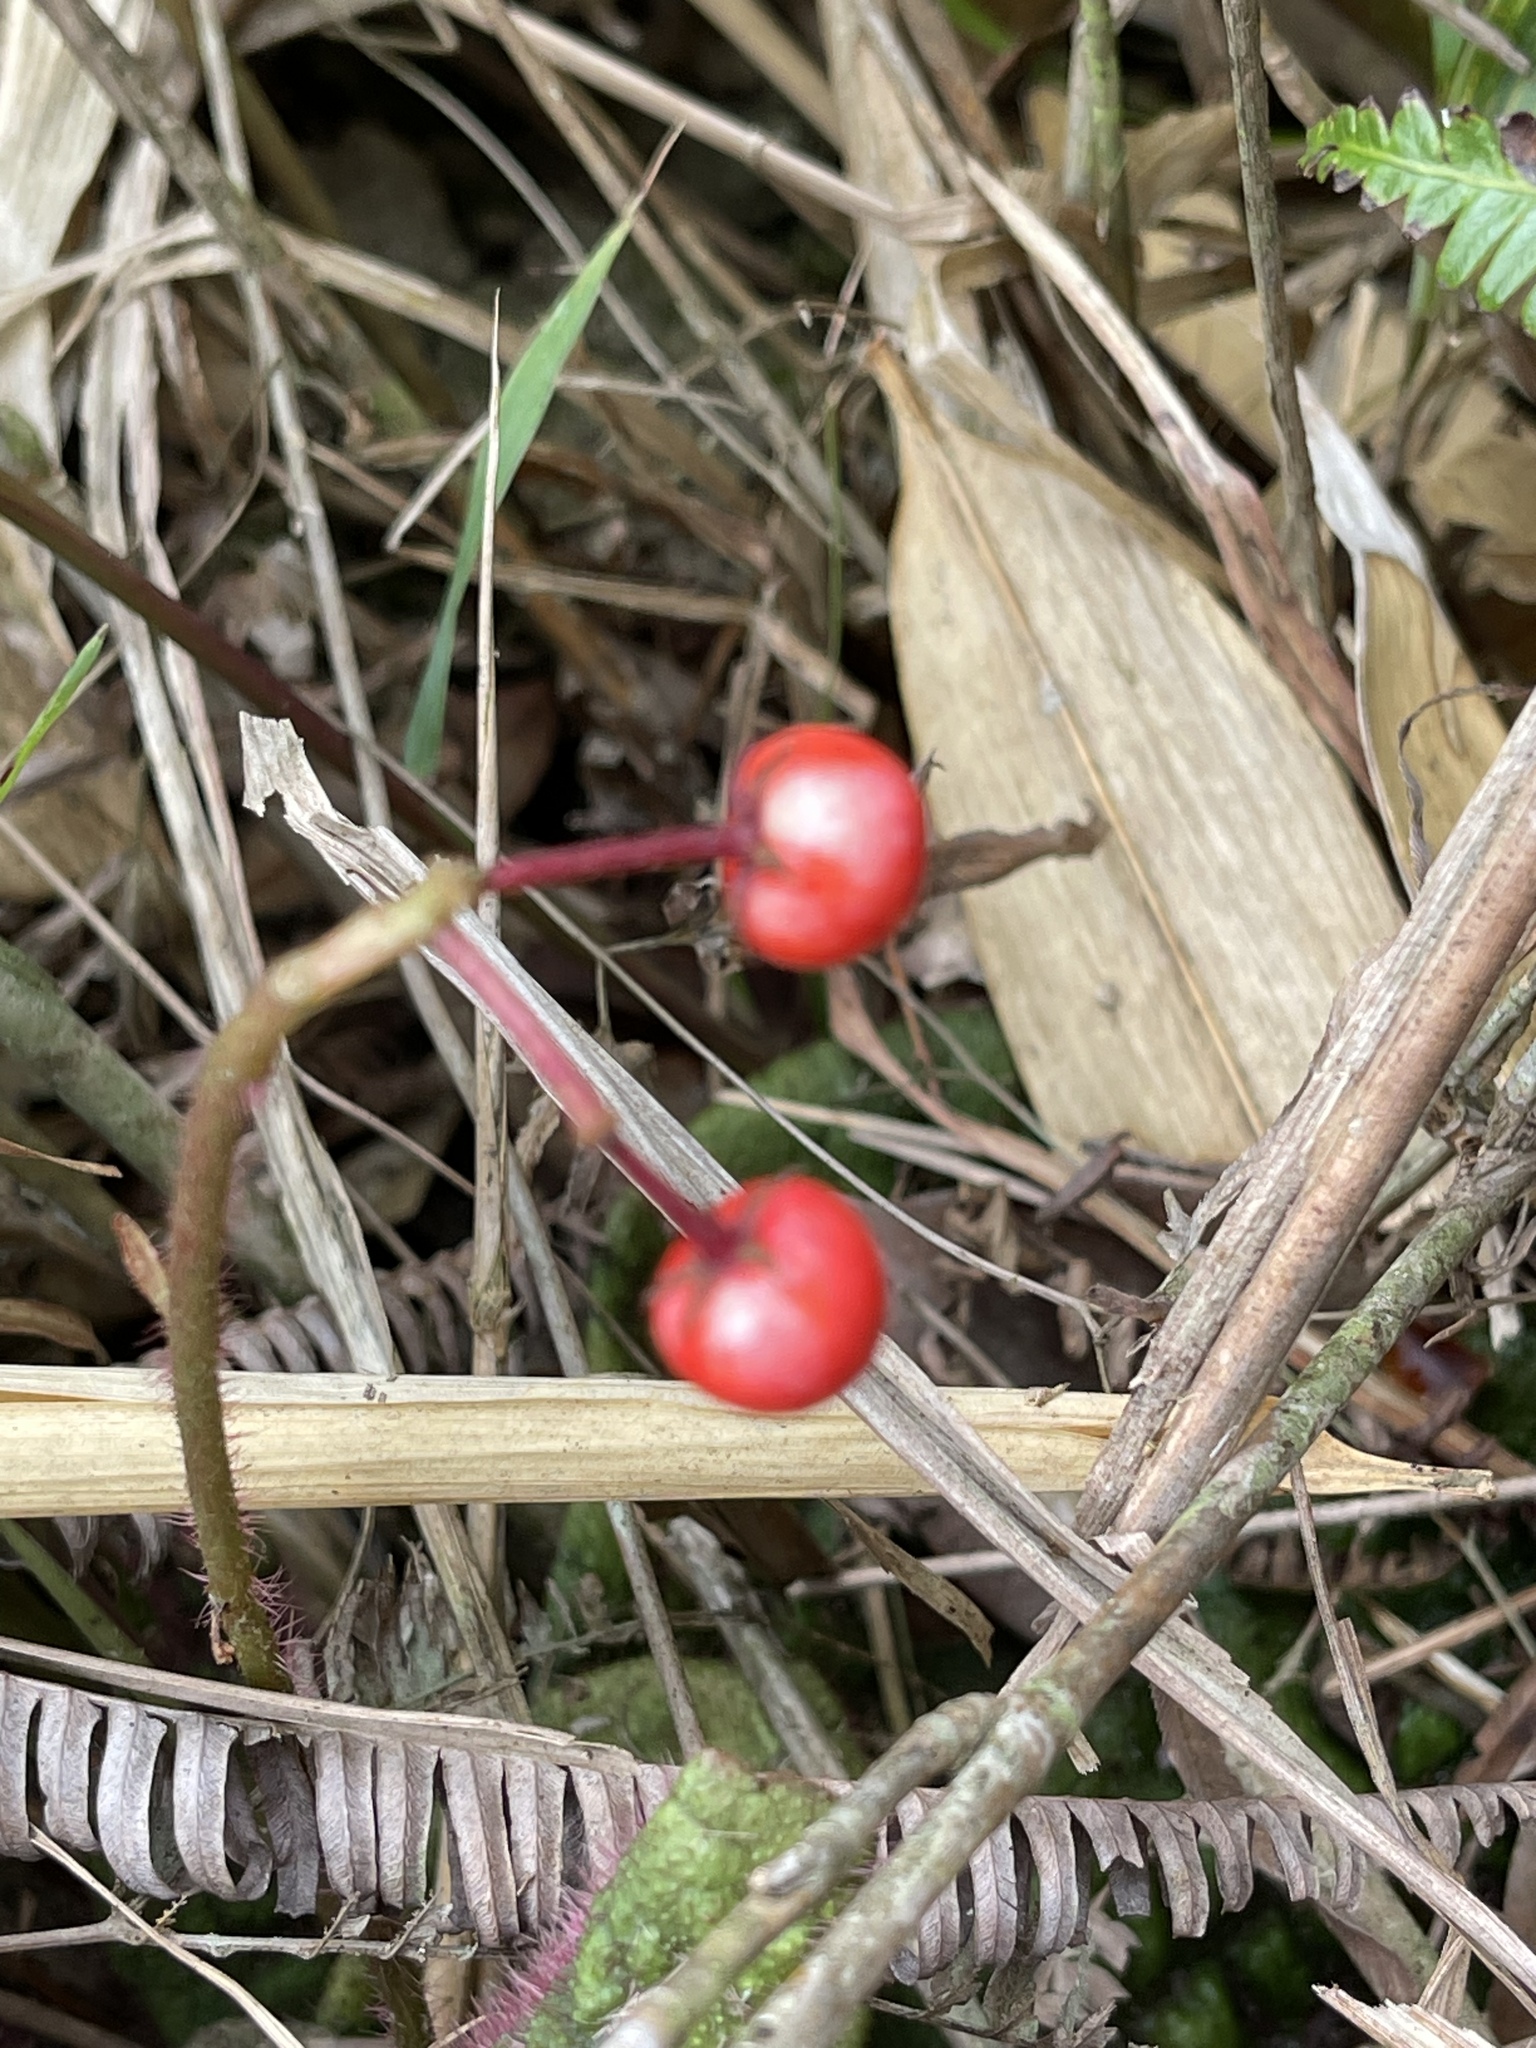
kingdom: Plantae
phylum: Tracheophyta
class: Magnoliopsida
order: Ericales
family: Primulaceae
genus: Ardisia
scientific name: Ardisia primulifolia
